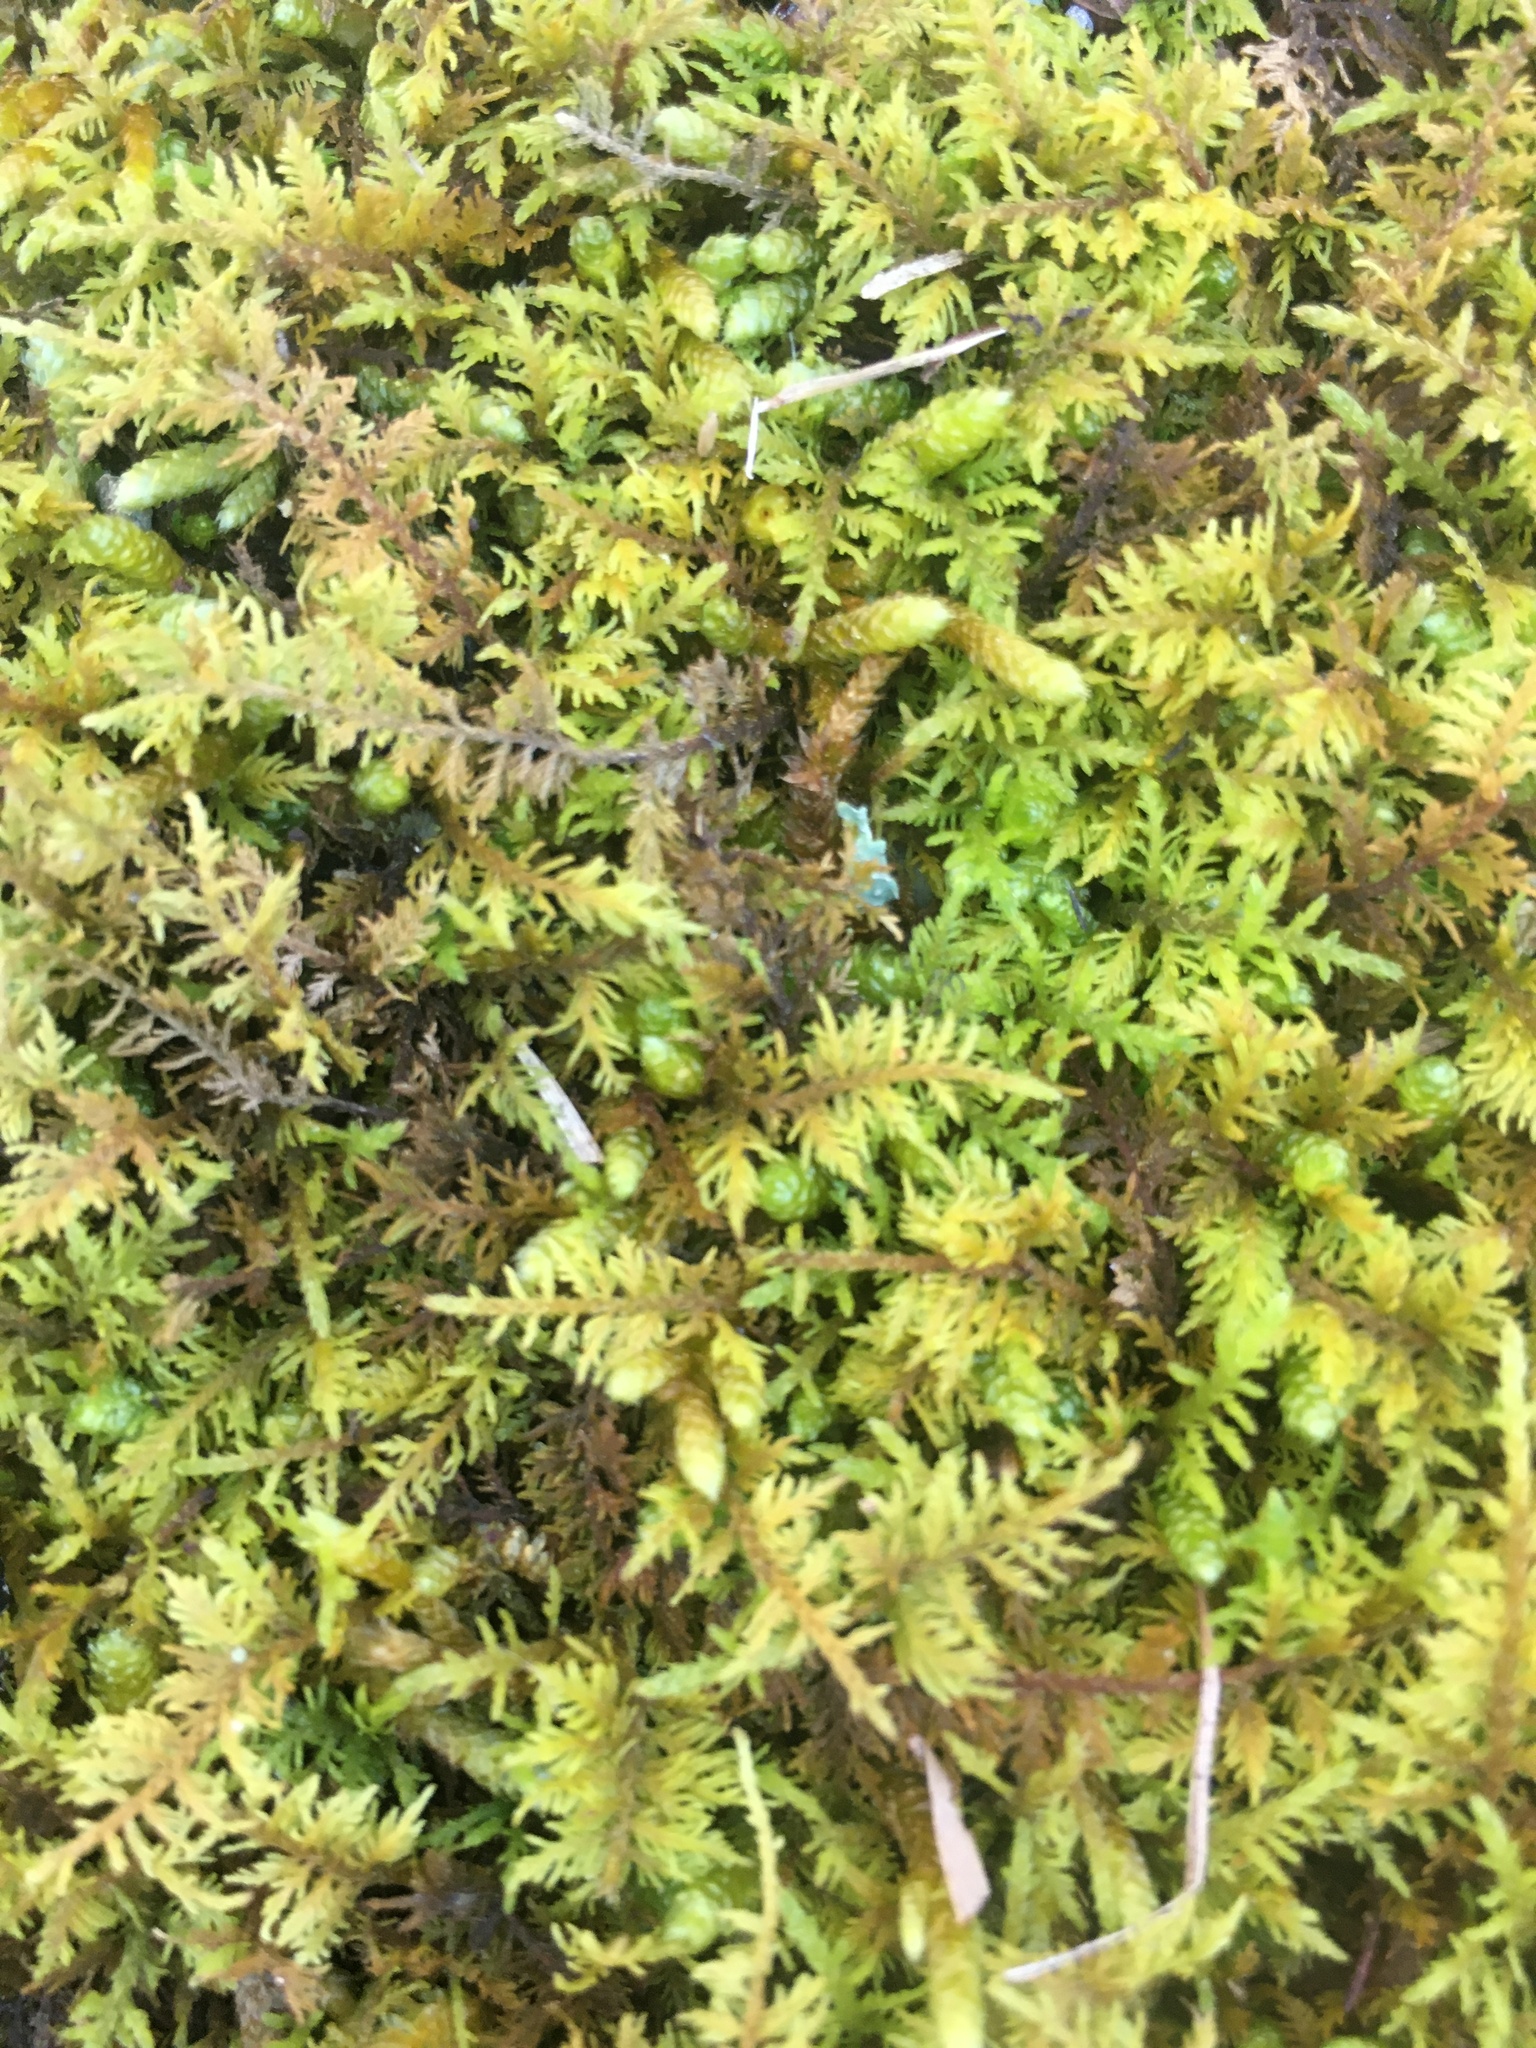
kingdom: Plantae
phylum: Bryophyta
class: Bryopsida
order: Hypnales
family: Thuidiaceae
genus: Thuidium
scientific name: Thuidium delicatulum
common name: Delicate fern moss
